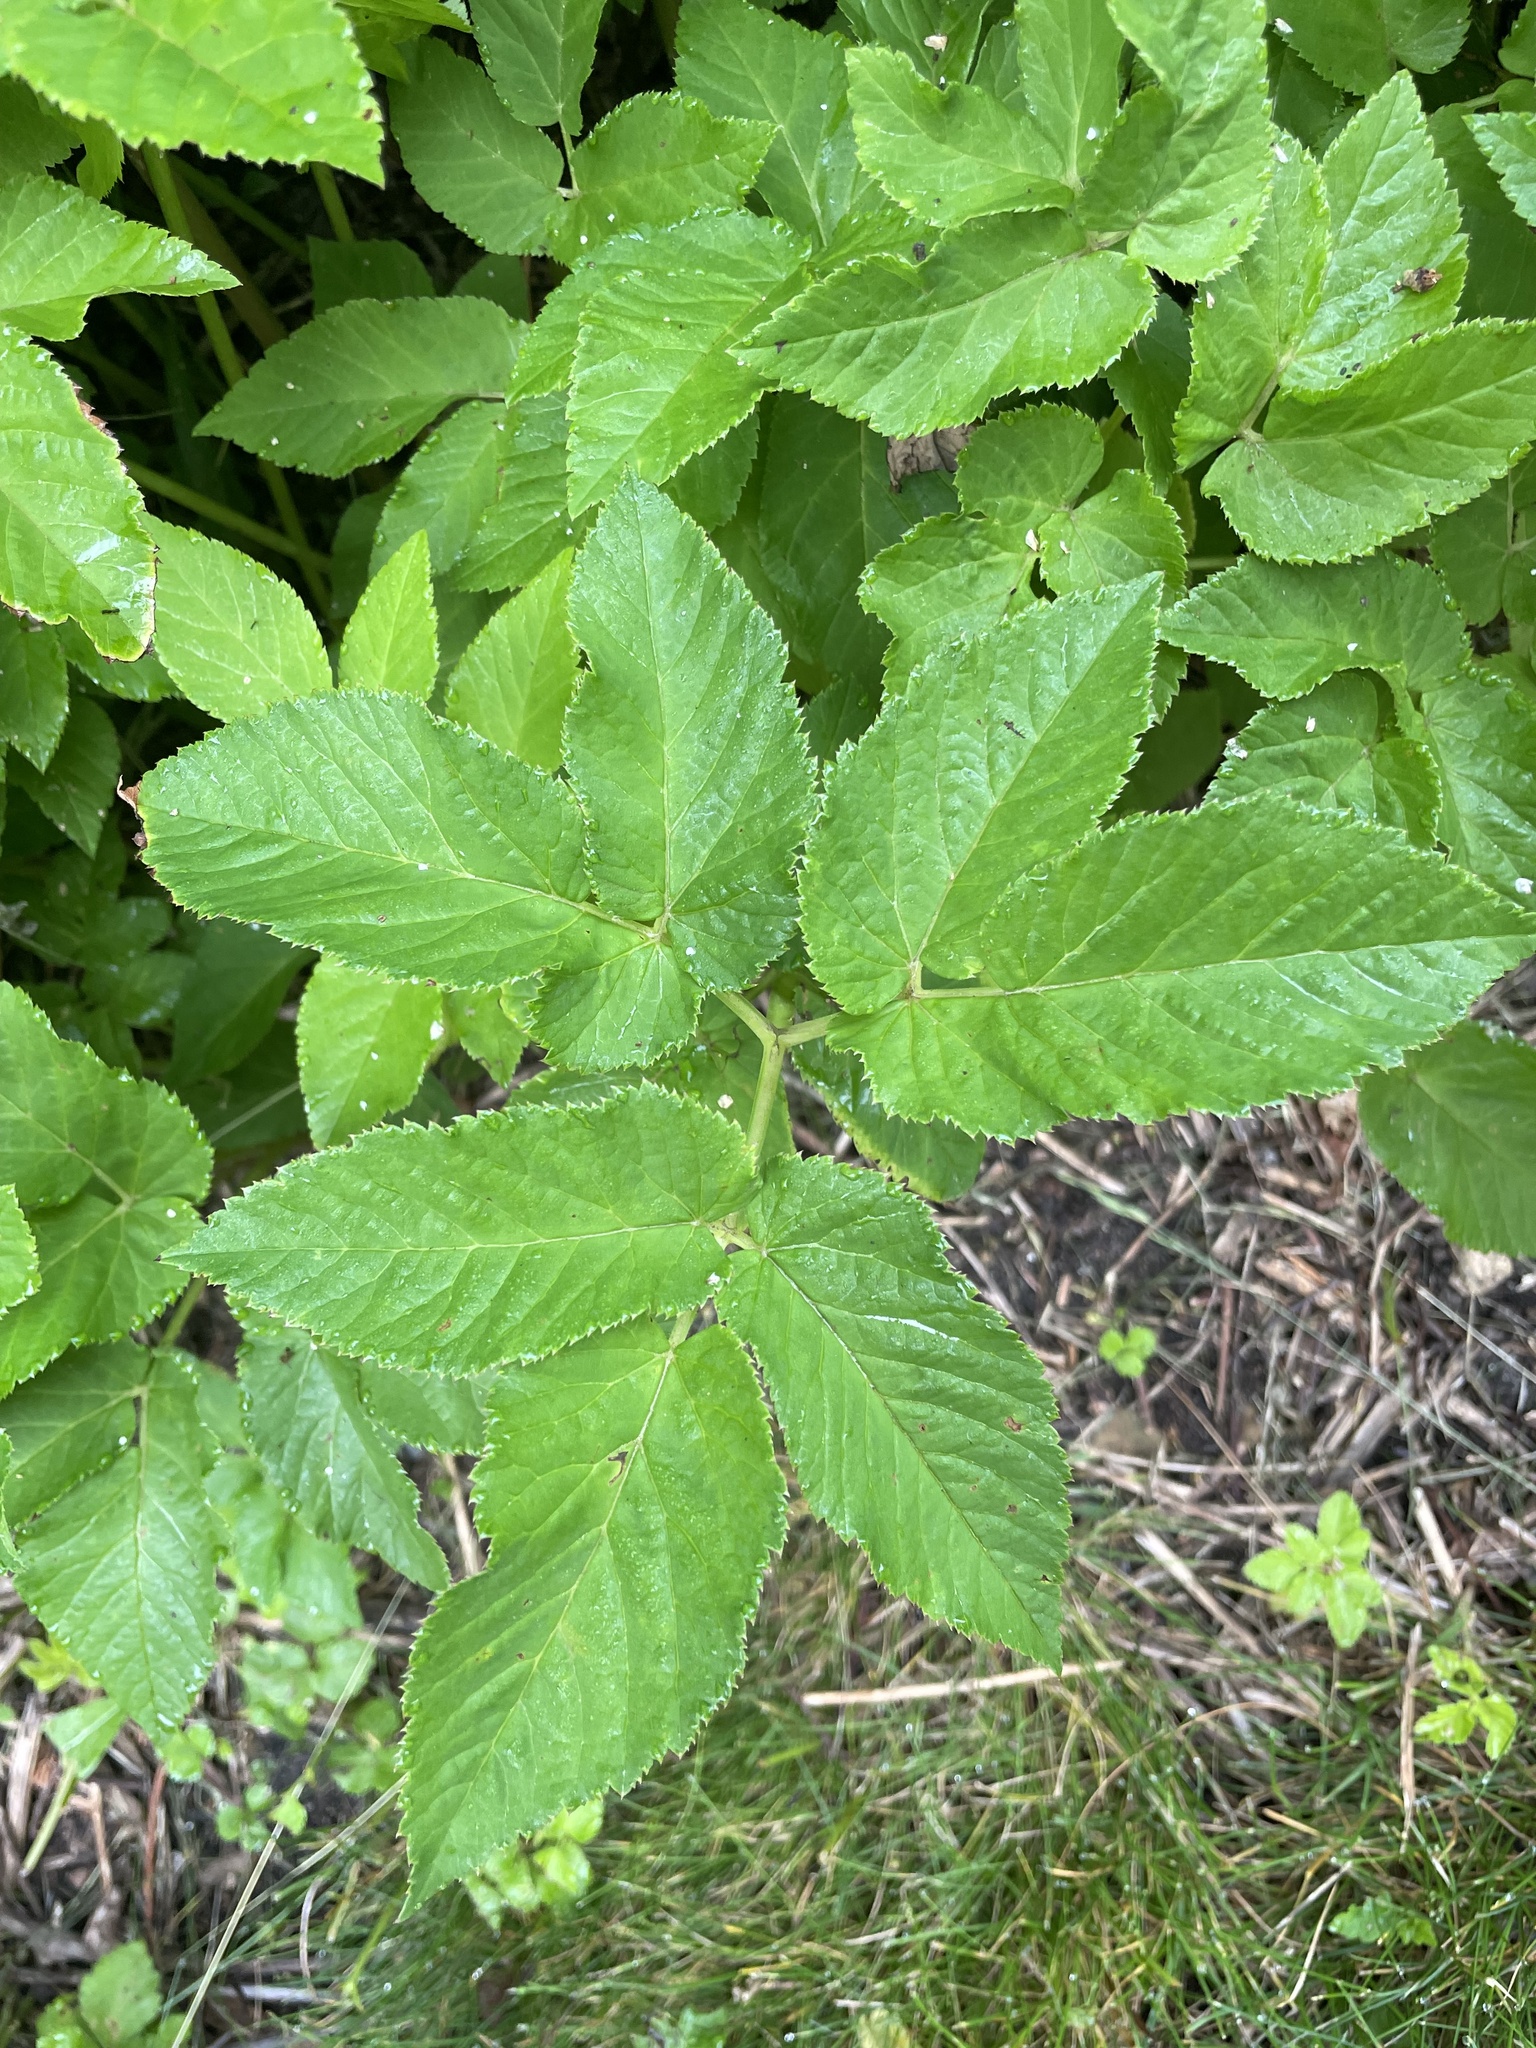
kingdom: Plantae
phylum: Tracheophyta
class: Magnoliopsida
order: Apiales
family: Apiaceae
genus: Aegopodium
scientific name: Aegopodium podagraria
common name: Ground-elder
